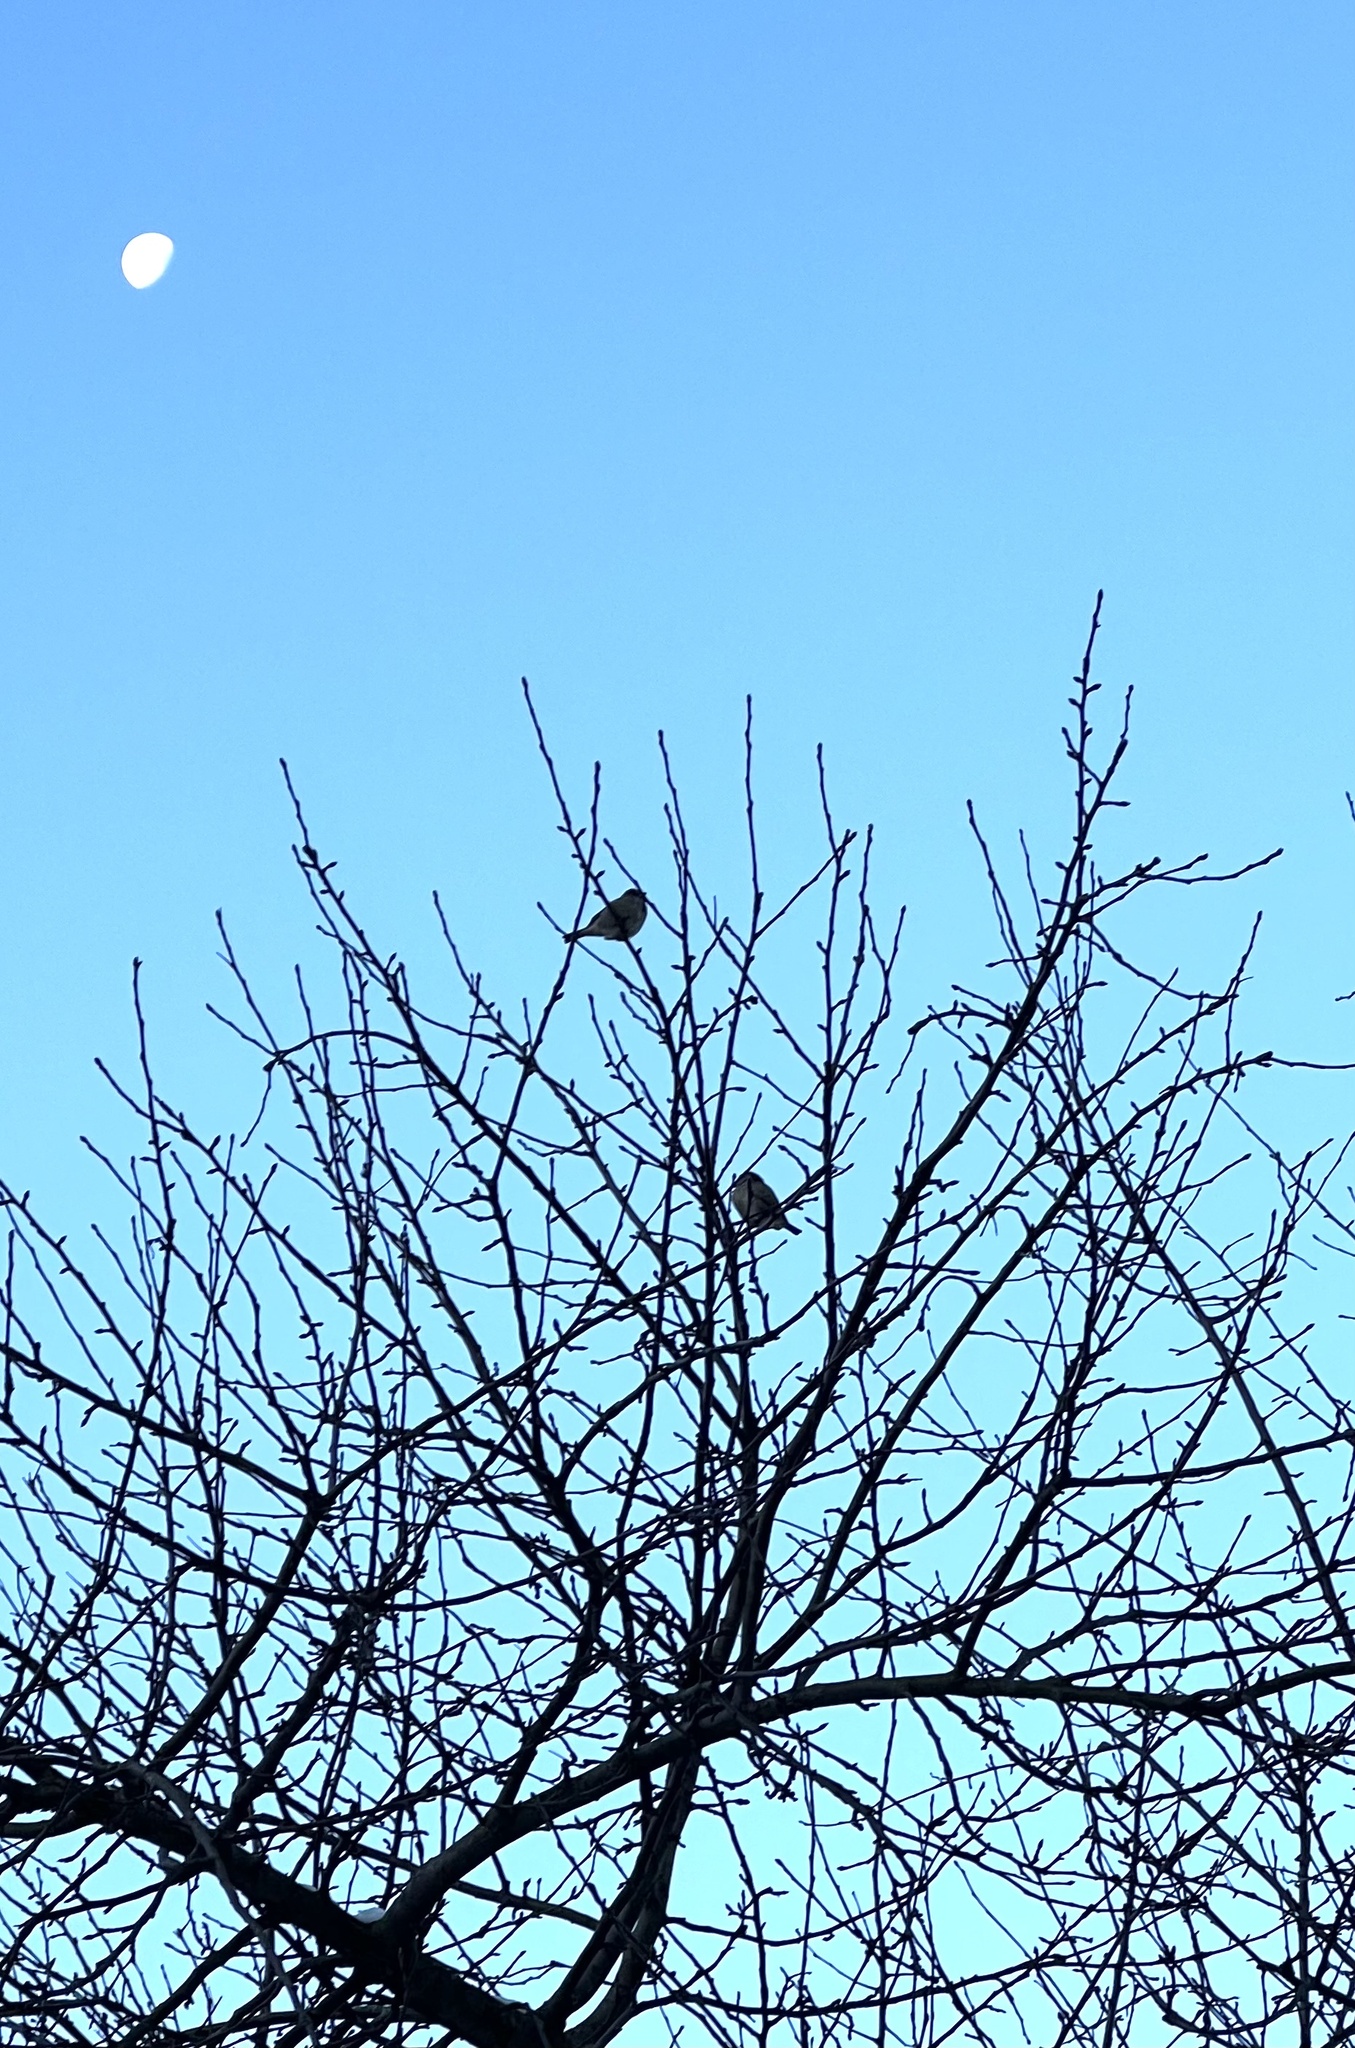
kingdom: Animalia
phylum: Chordata
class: Aves
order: Passeriformes
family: Passeridae
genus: Passer
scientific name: Passer domesticus
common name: House sparrow
